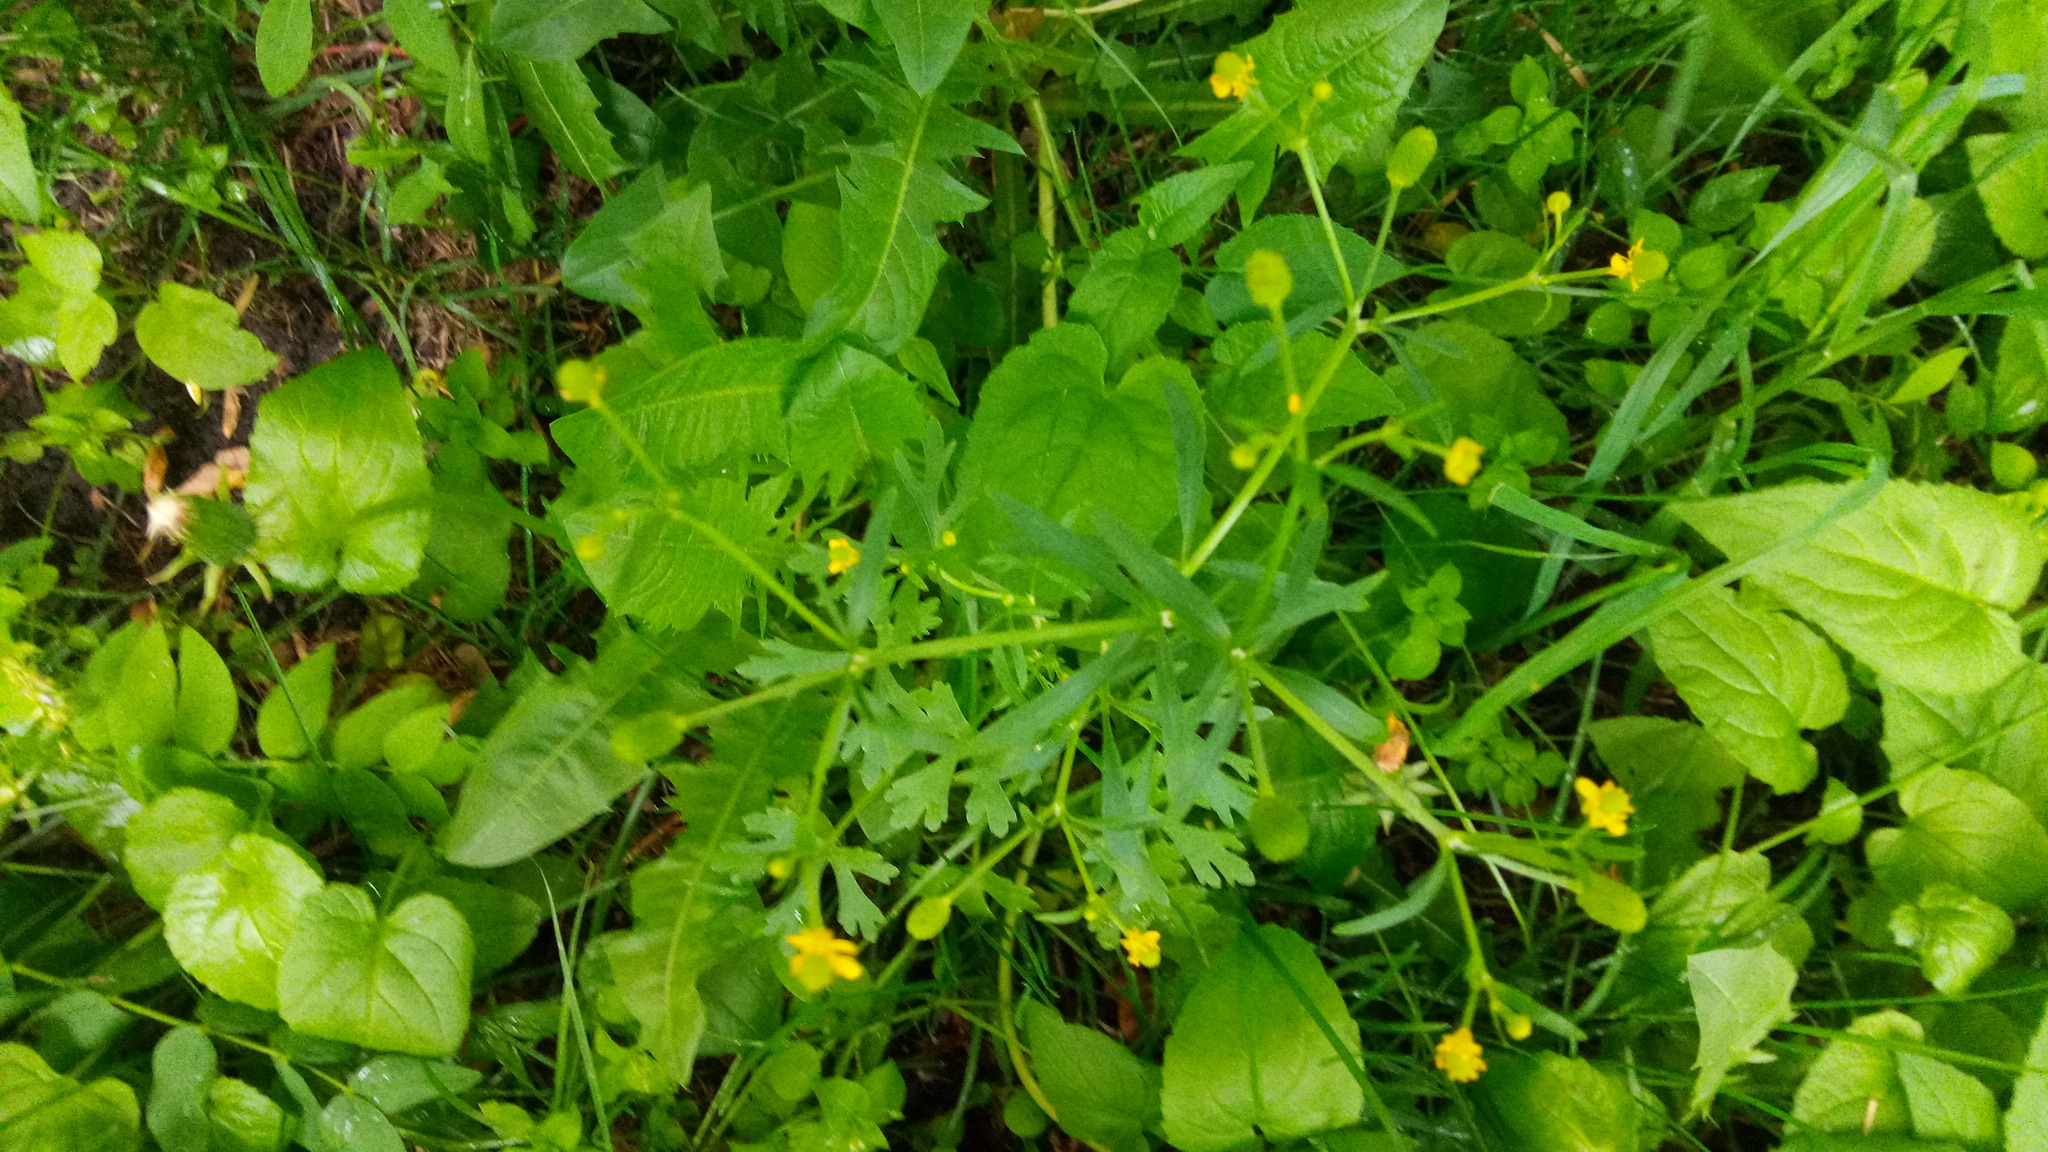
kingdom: Plantae
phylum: Tracheophyta
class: Magnoliopsida
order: Ranunculales
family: Ranunculaceae
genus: Ranunculus
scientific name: Ranunculus sceleratus
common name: Celery-leaved buttercup
